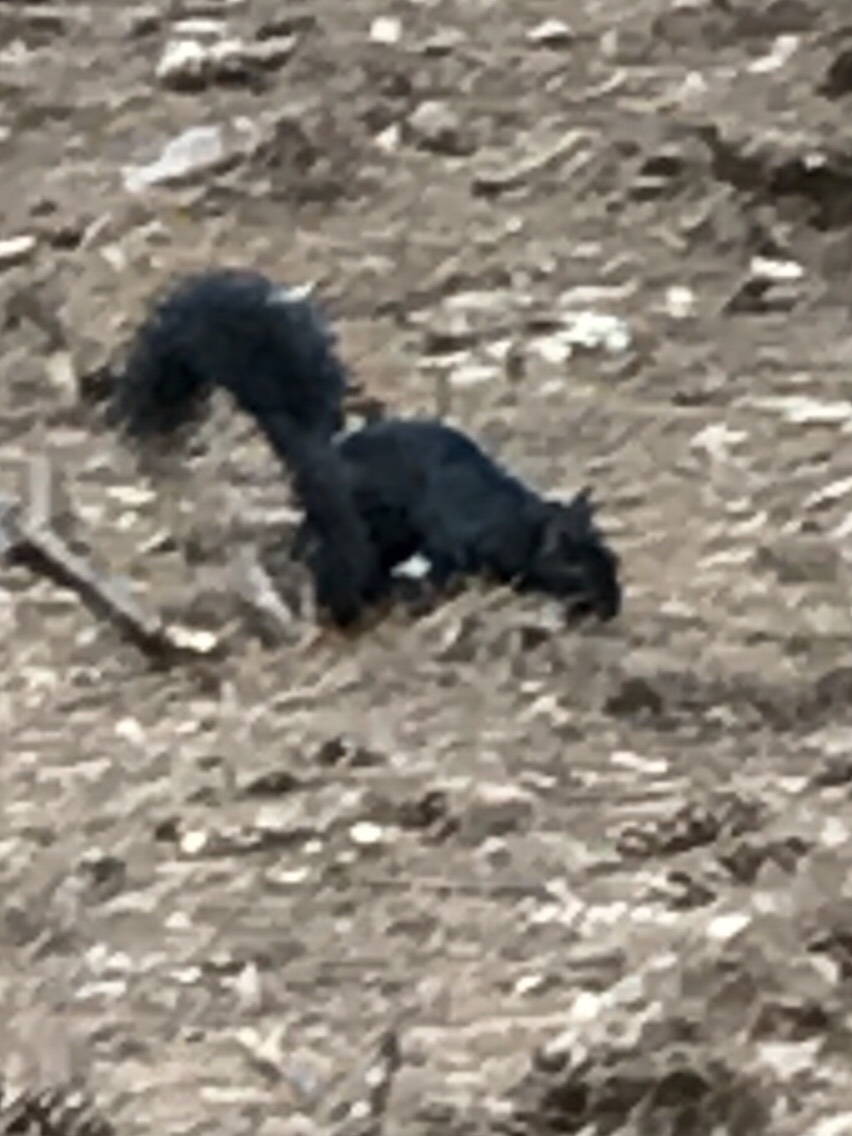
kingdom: Animalia
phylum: Chordata
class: Mammalia
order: Rodentia
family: Sciuridae
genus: Sciurus
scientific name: Sciurus carolinensis
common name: Eastern gray squirrel
